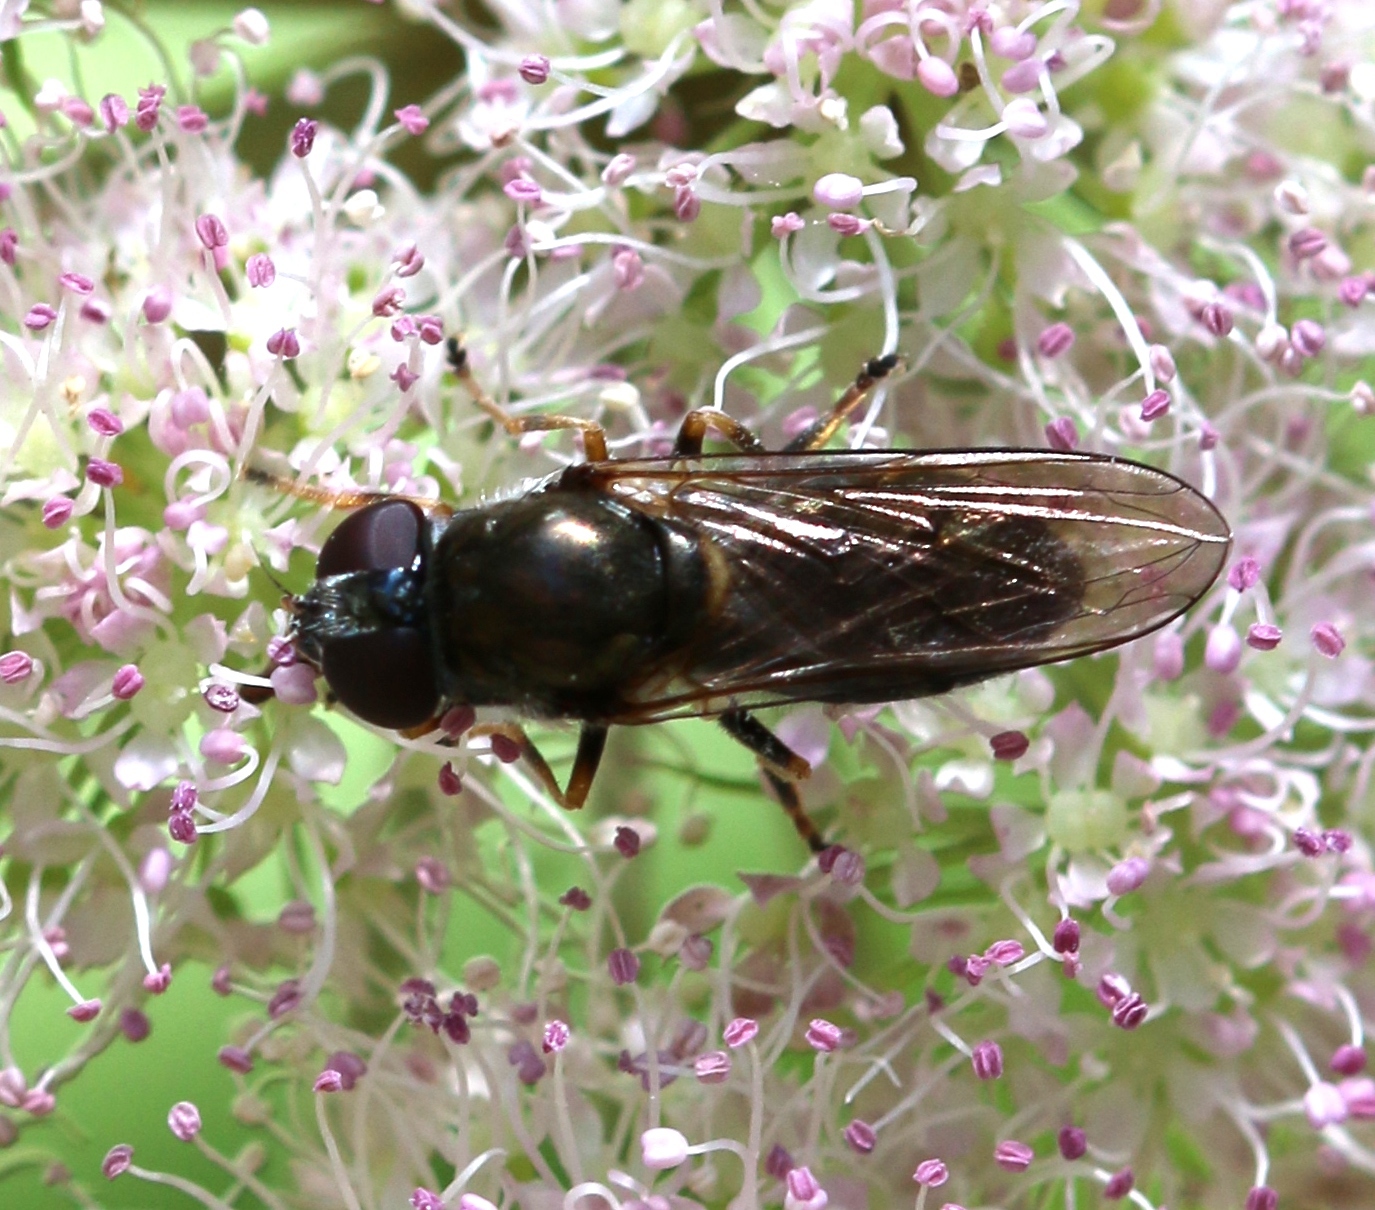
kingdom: Animalia
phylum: Arthropoda
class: Insecta
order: Diptera
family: Syrphidae
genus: Cheilosia
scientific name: Cheilosia ruffipes
